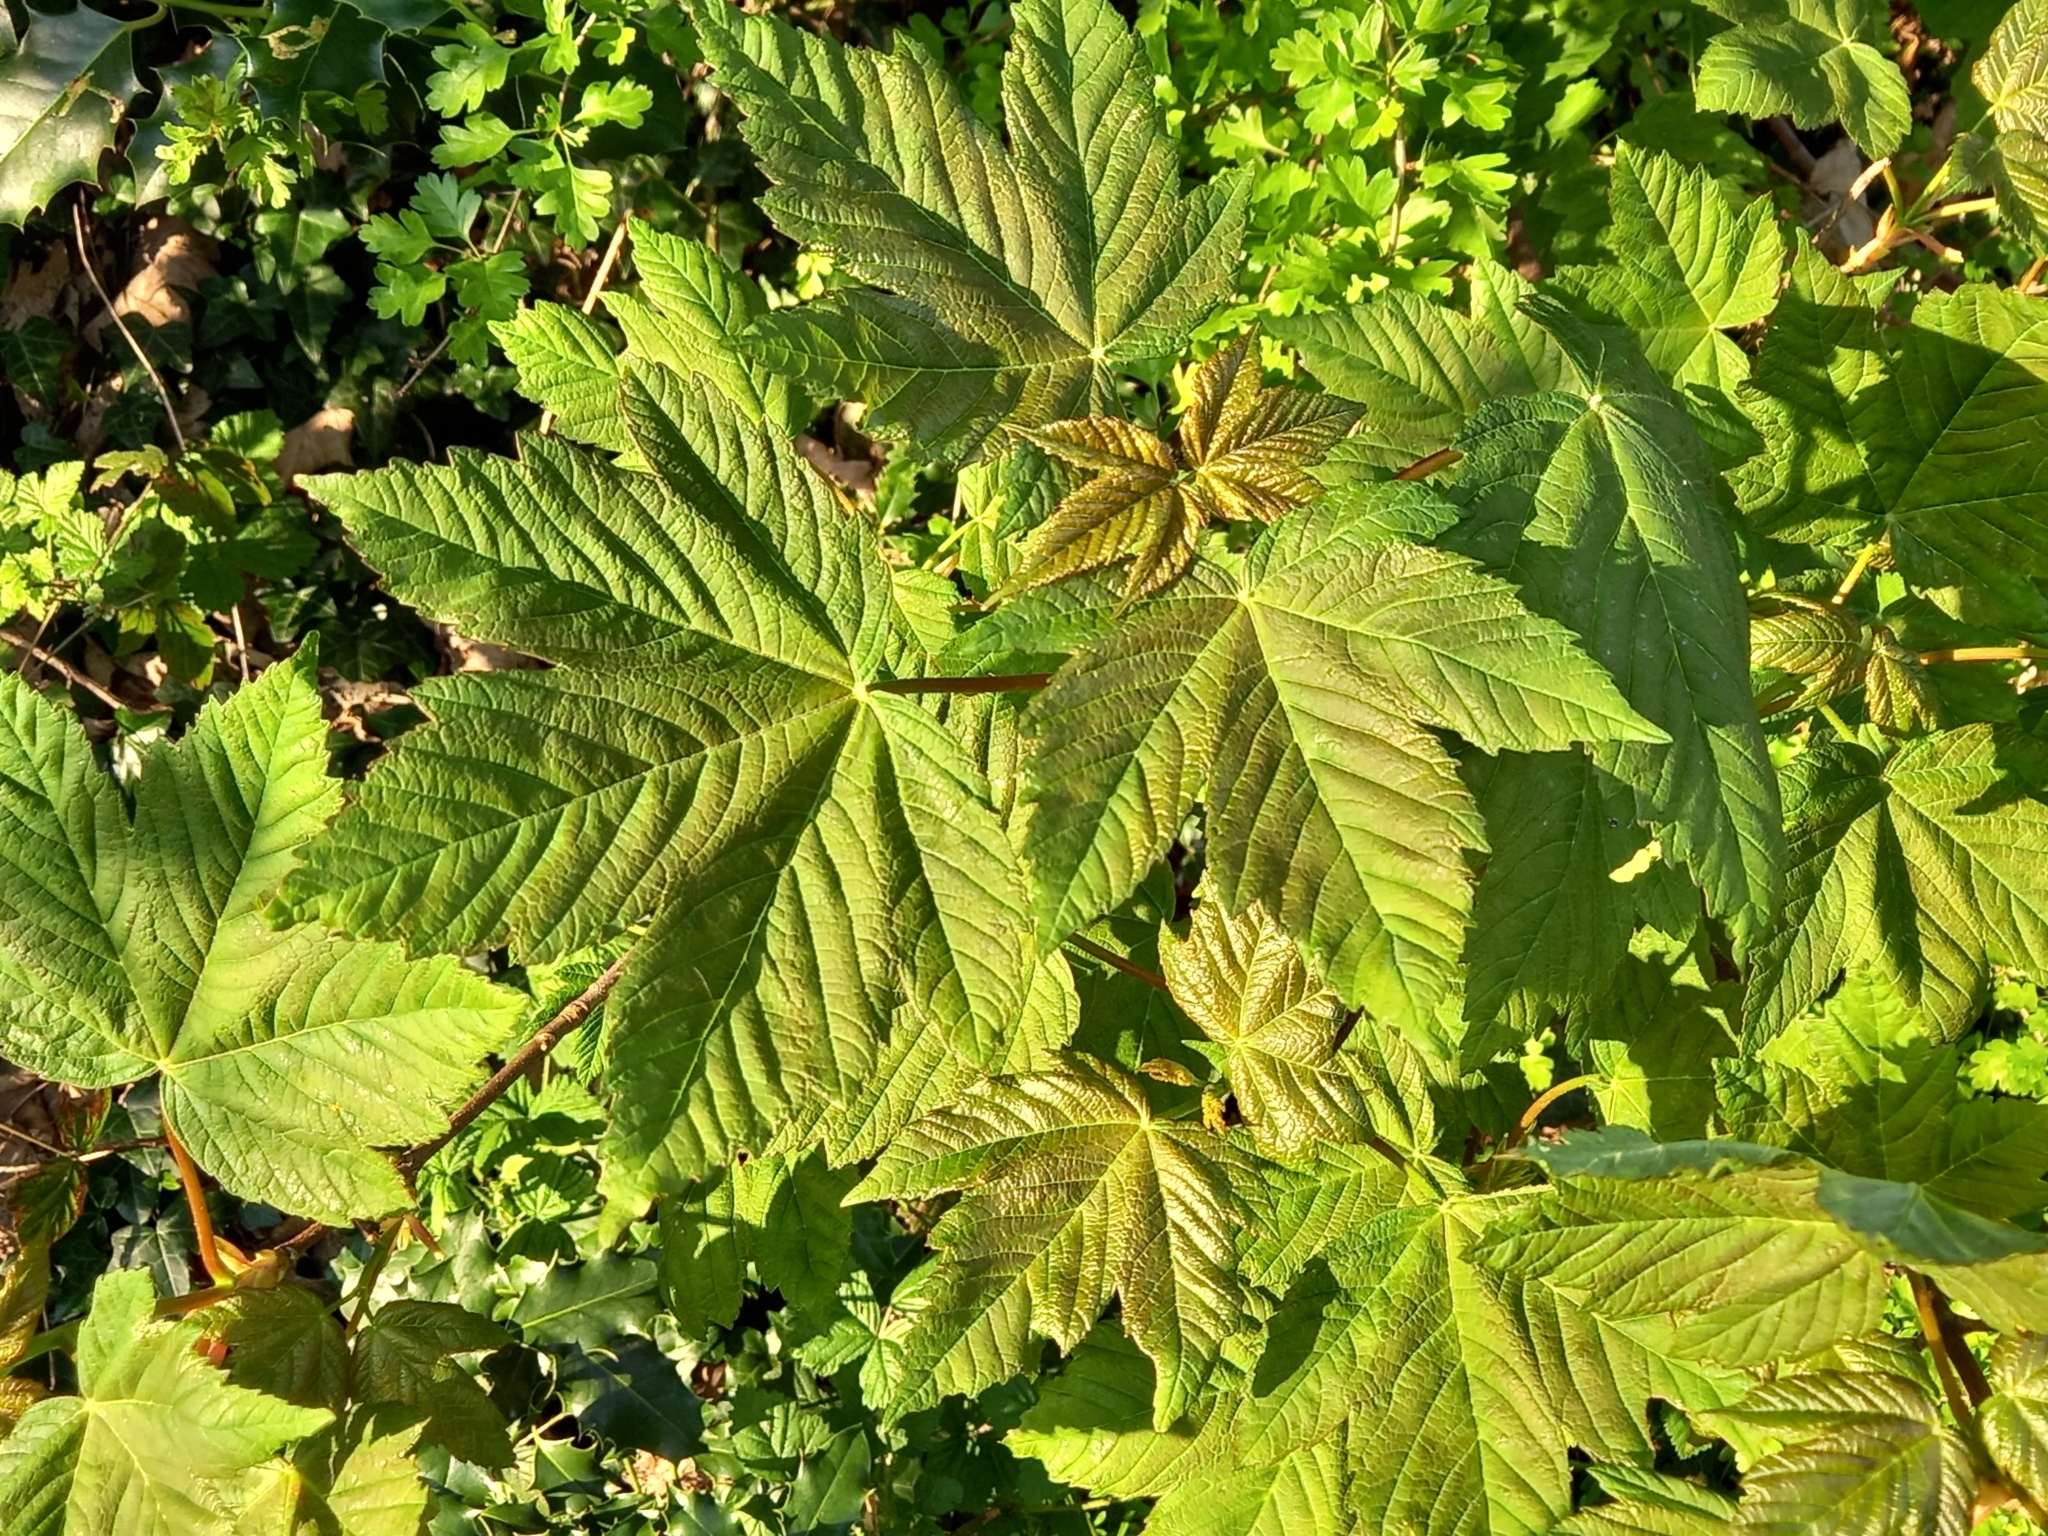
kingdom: Plantae
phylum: Tracheophyta
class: Magnoliopsida
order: Sapindales
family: Sapindaceae
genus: Acer
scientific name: Acer pseudoplatanus
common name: Sycamore
